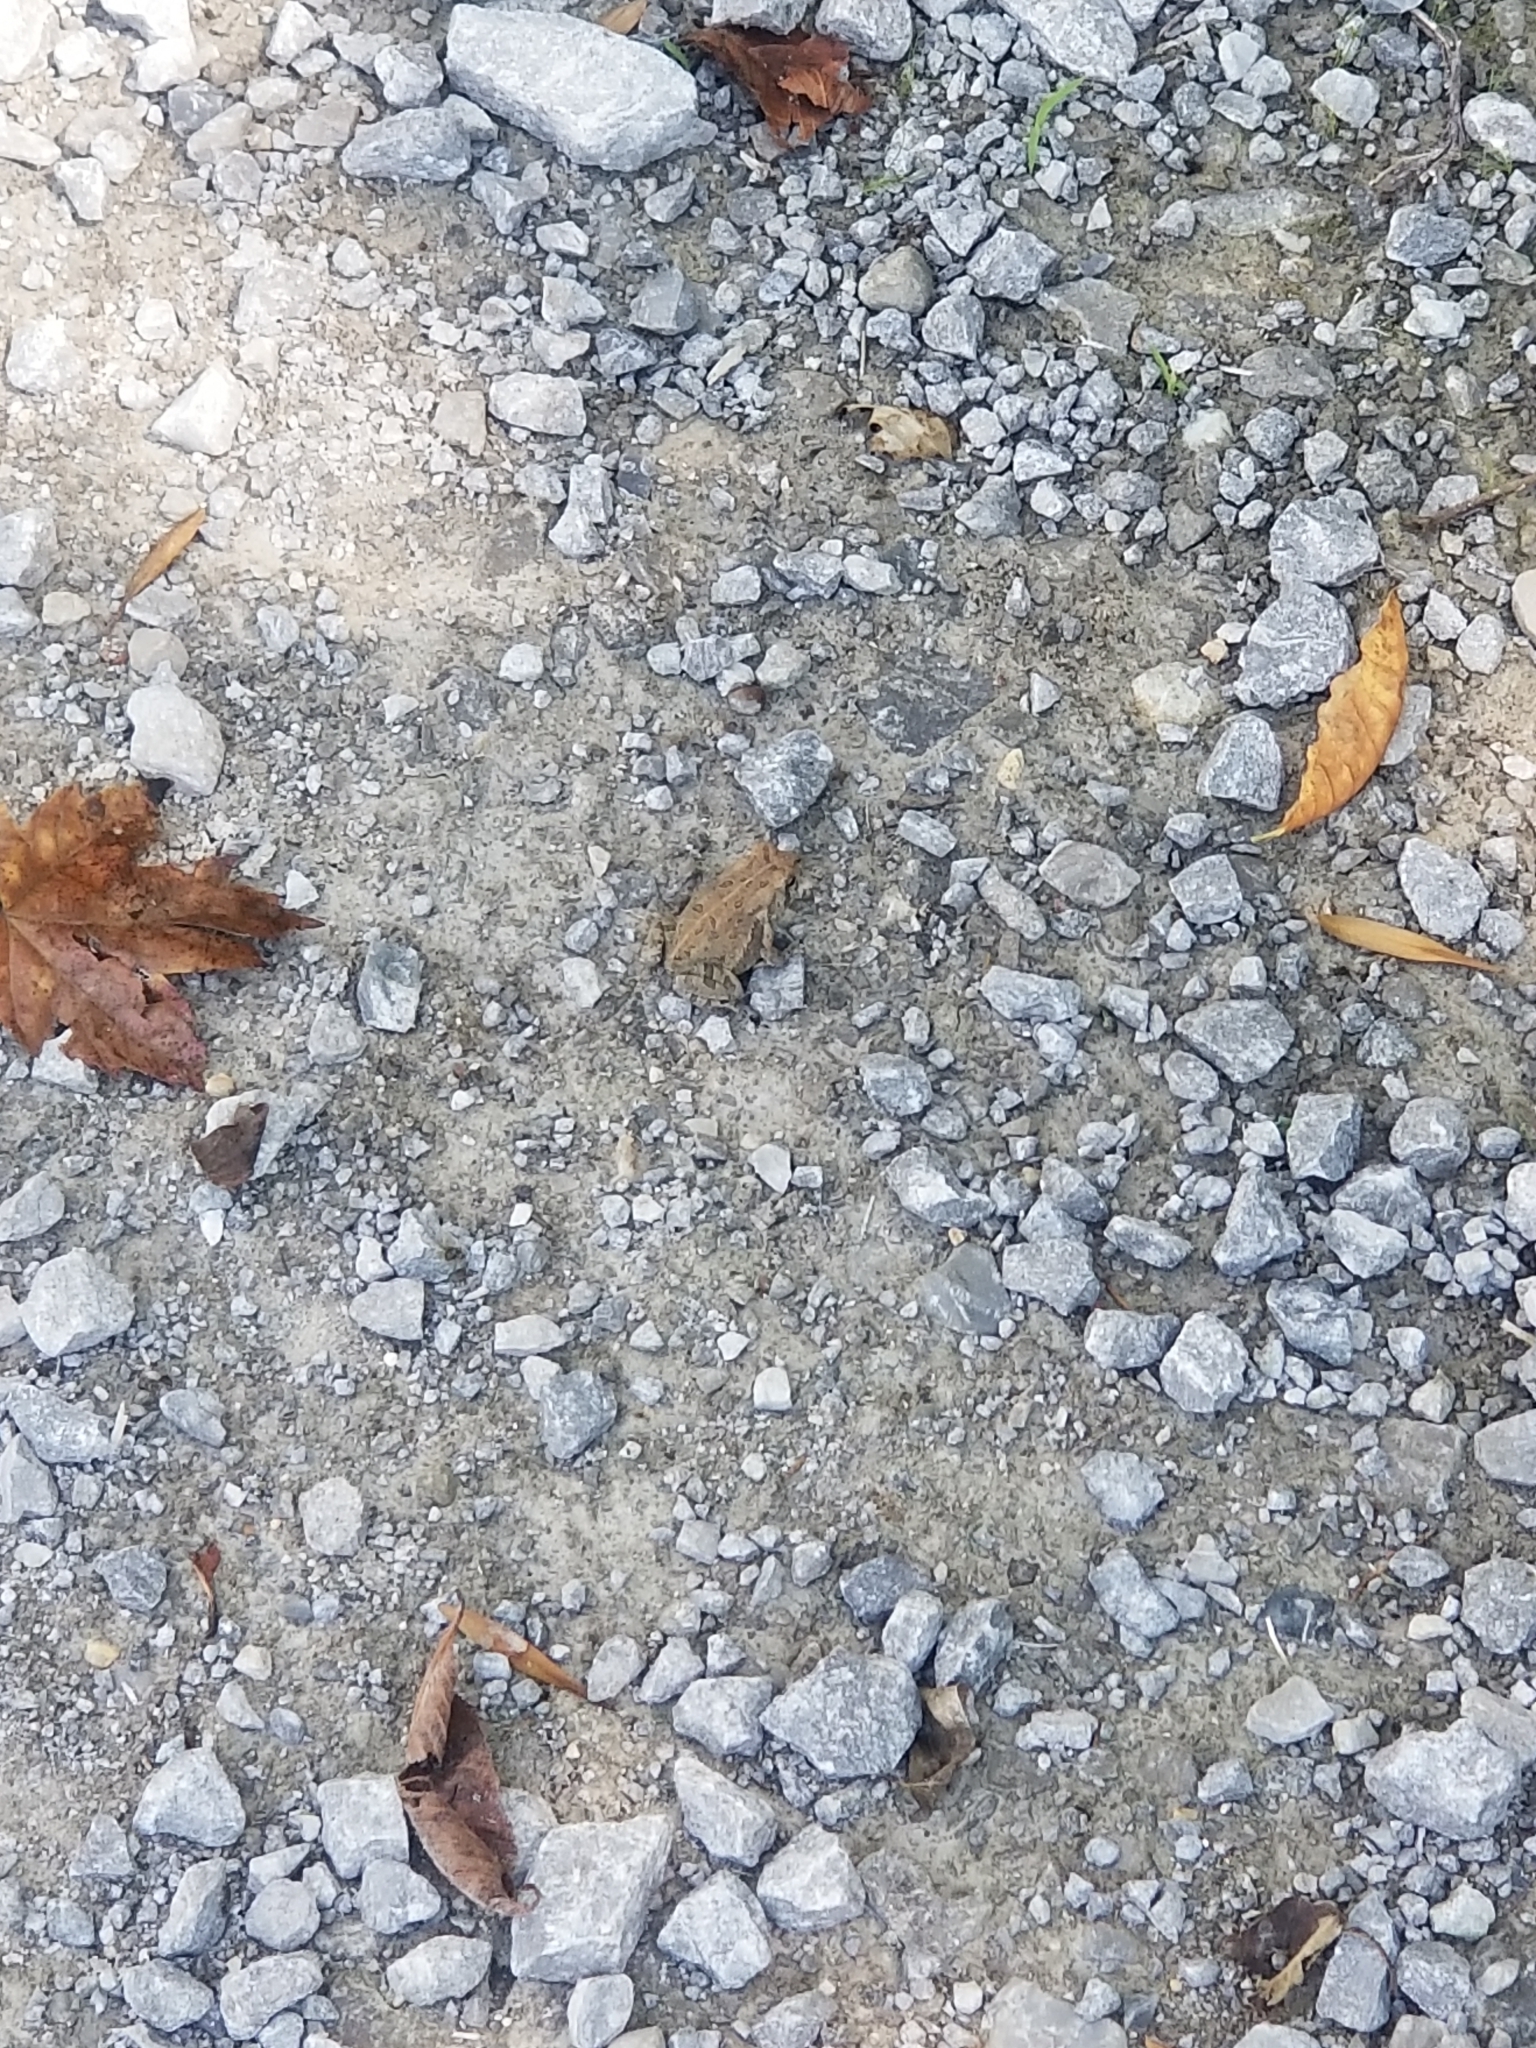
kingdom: Animalia
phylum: Chordata
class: Amphibia
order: Anura
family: Bufonidae
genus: Anaxyrus
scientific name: Anaxyrus fowleri
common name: Fowler's toad
